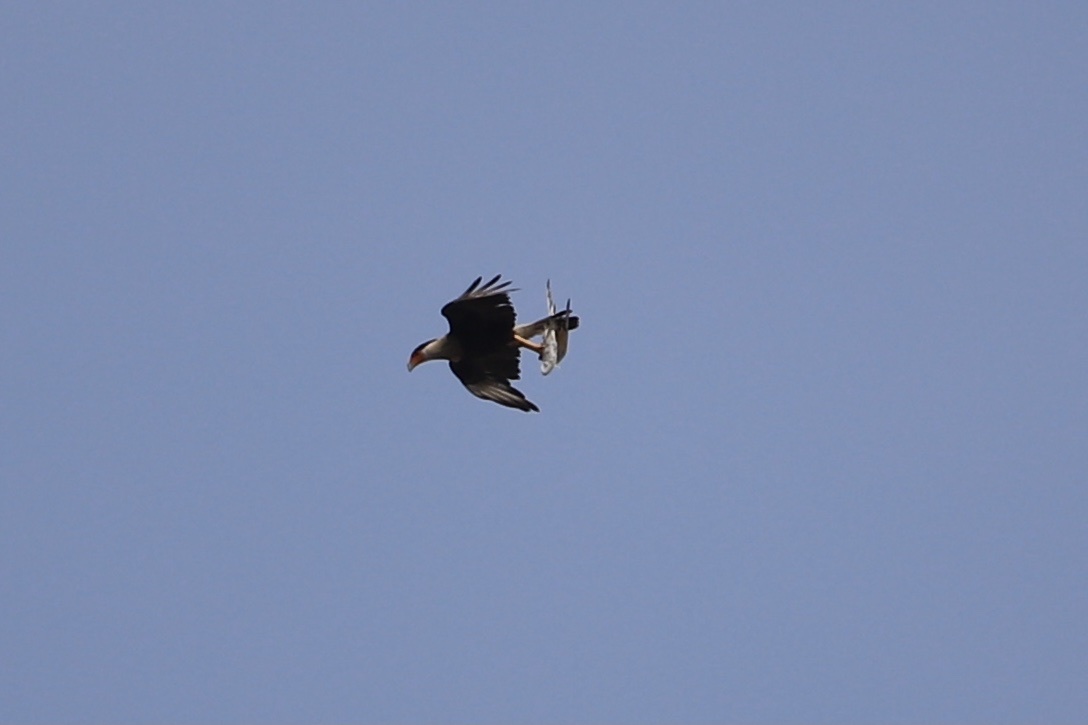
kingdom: Animalia
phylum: Chordata
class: Aves
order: Falconiformes
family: Falconidae
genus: Caracara
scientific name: Caracara plancus
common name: Southern caracara
